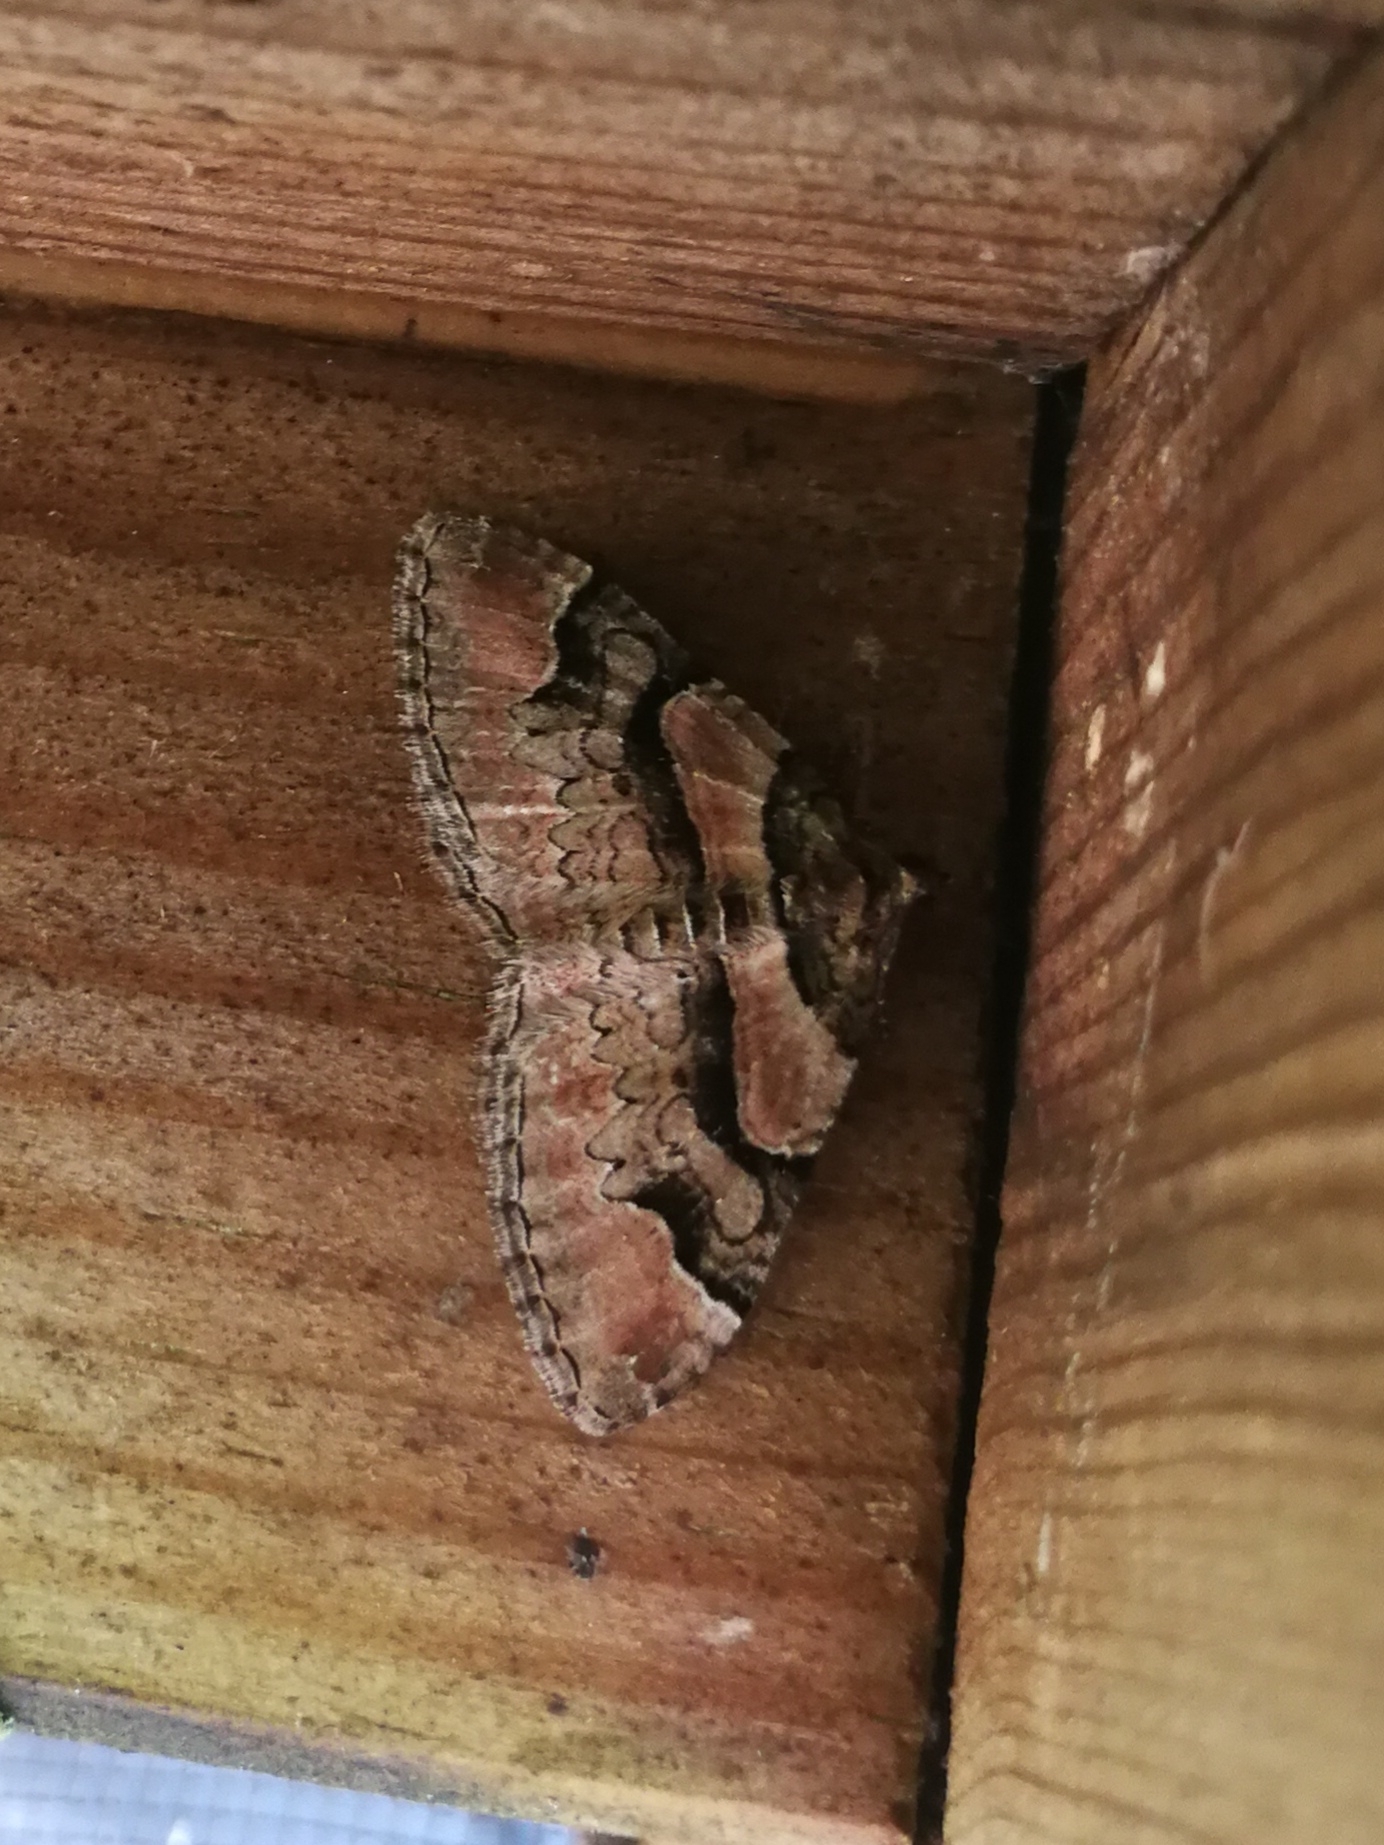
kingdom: Animalia
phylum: Arthropoda
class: Insecta
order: Lepidoptera
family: Geometridae
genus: Catarhoe
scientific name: Catarhoe rubidata
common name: Ruddy carpet
